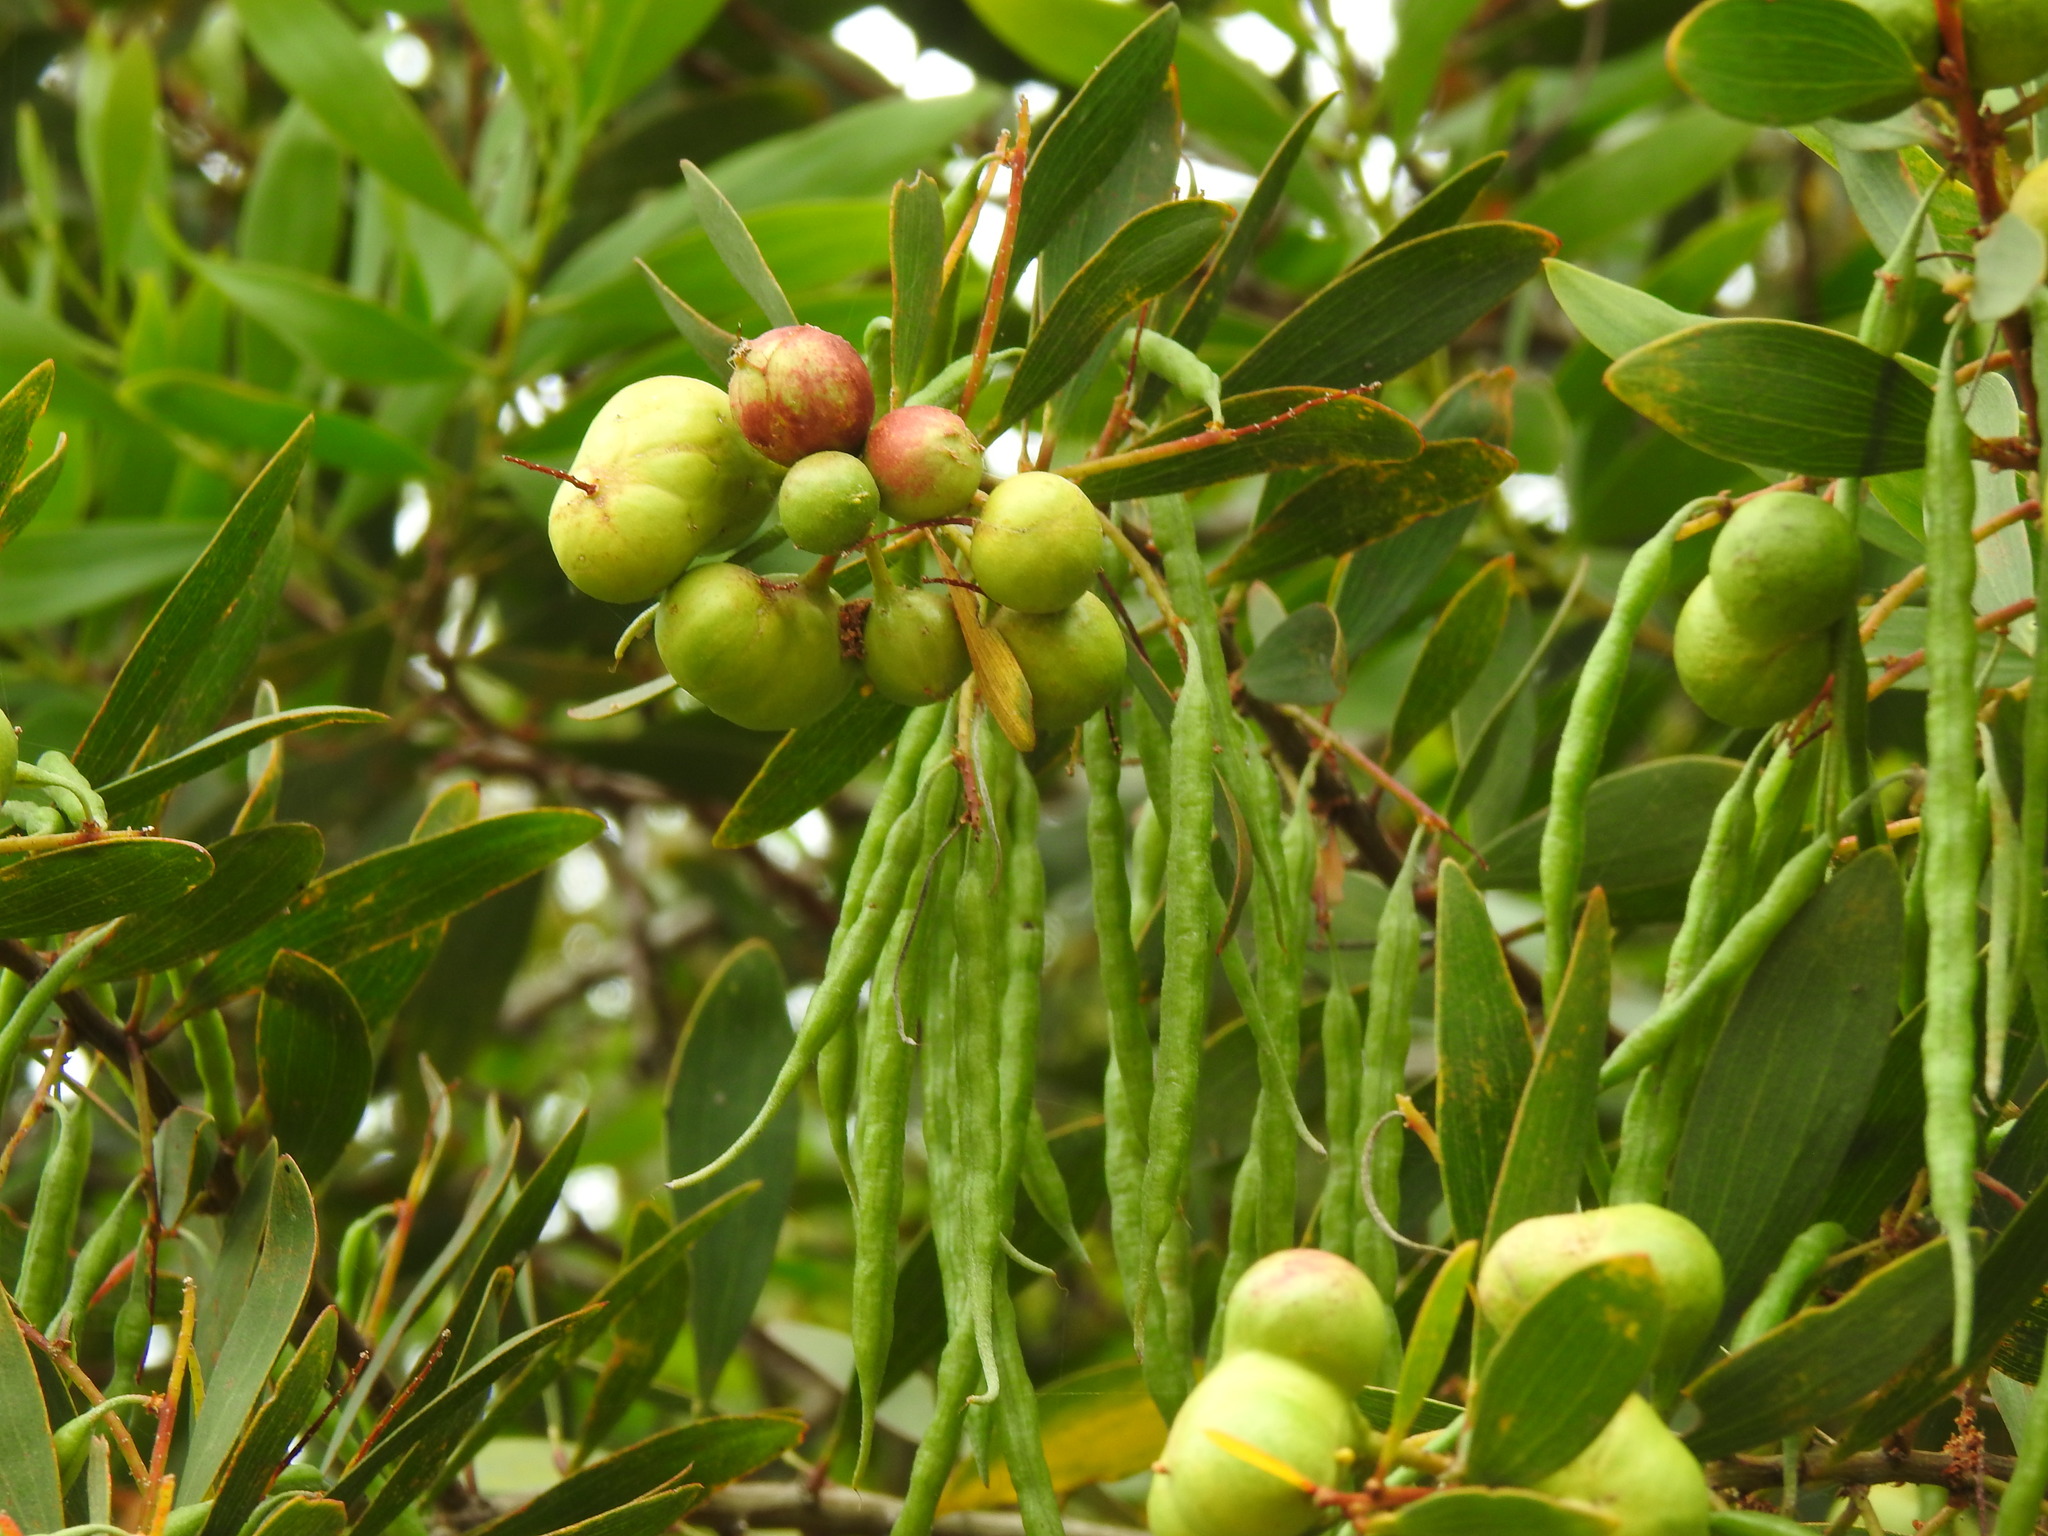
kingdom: Animalia
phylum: Arthropoda
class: Insecta
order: Hymenoptera
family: Pteromalidae
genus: Trichilogaster
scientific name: Trichilogaster acaciaelongifoliae
